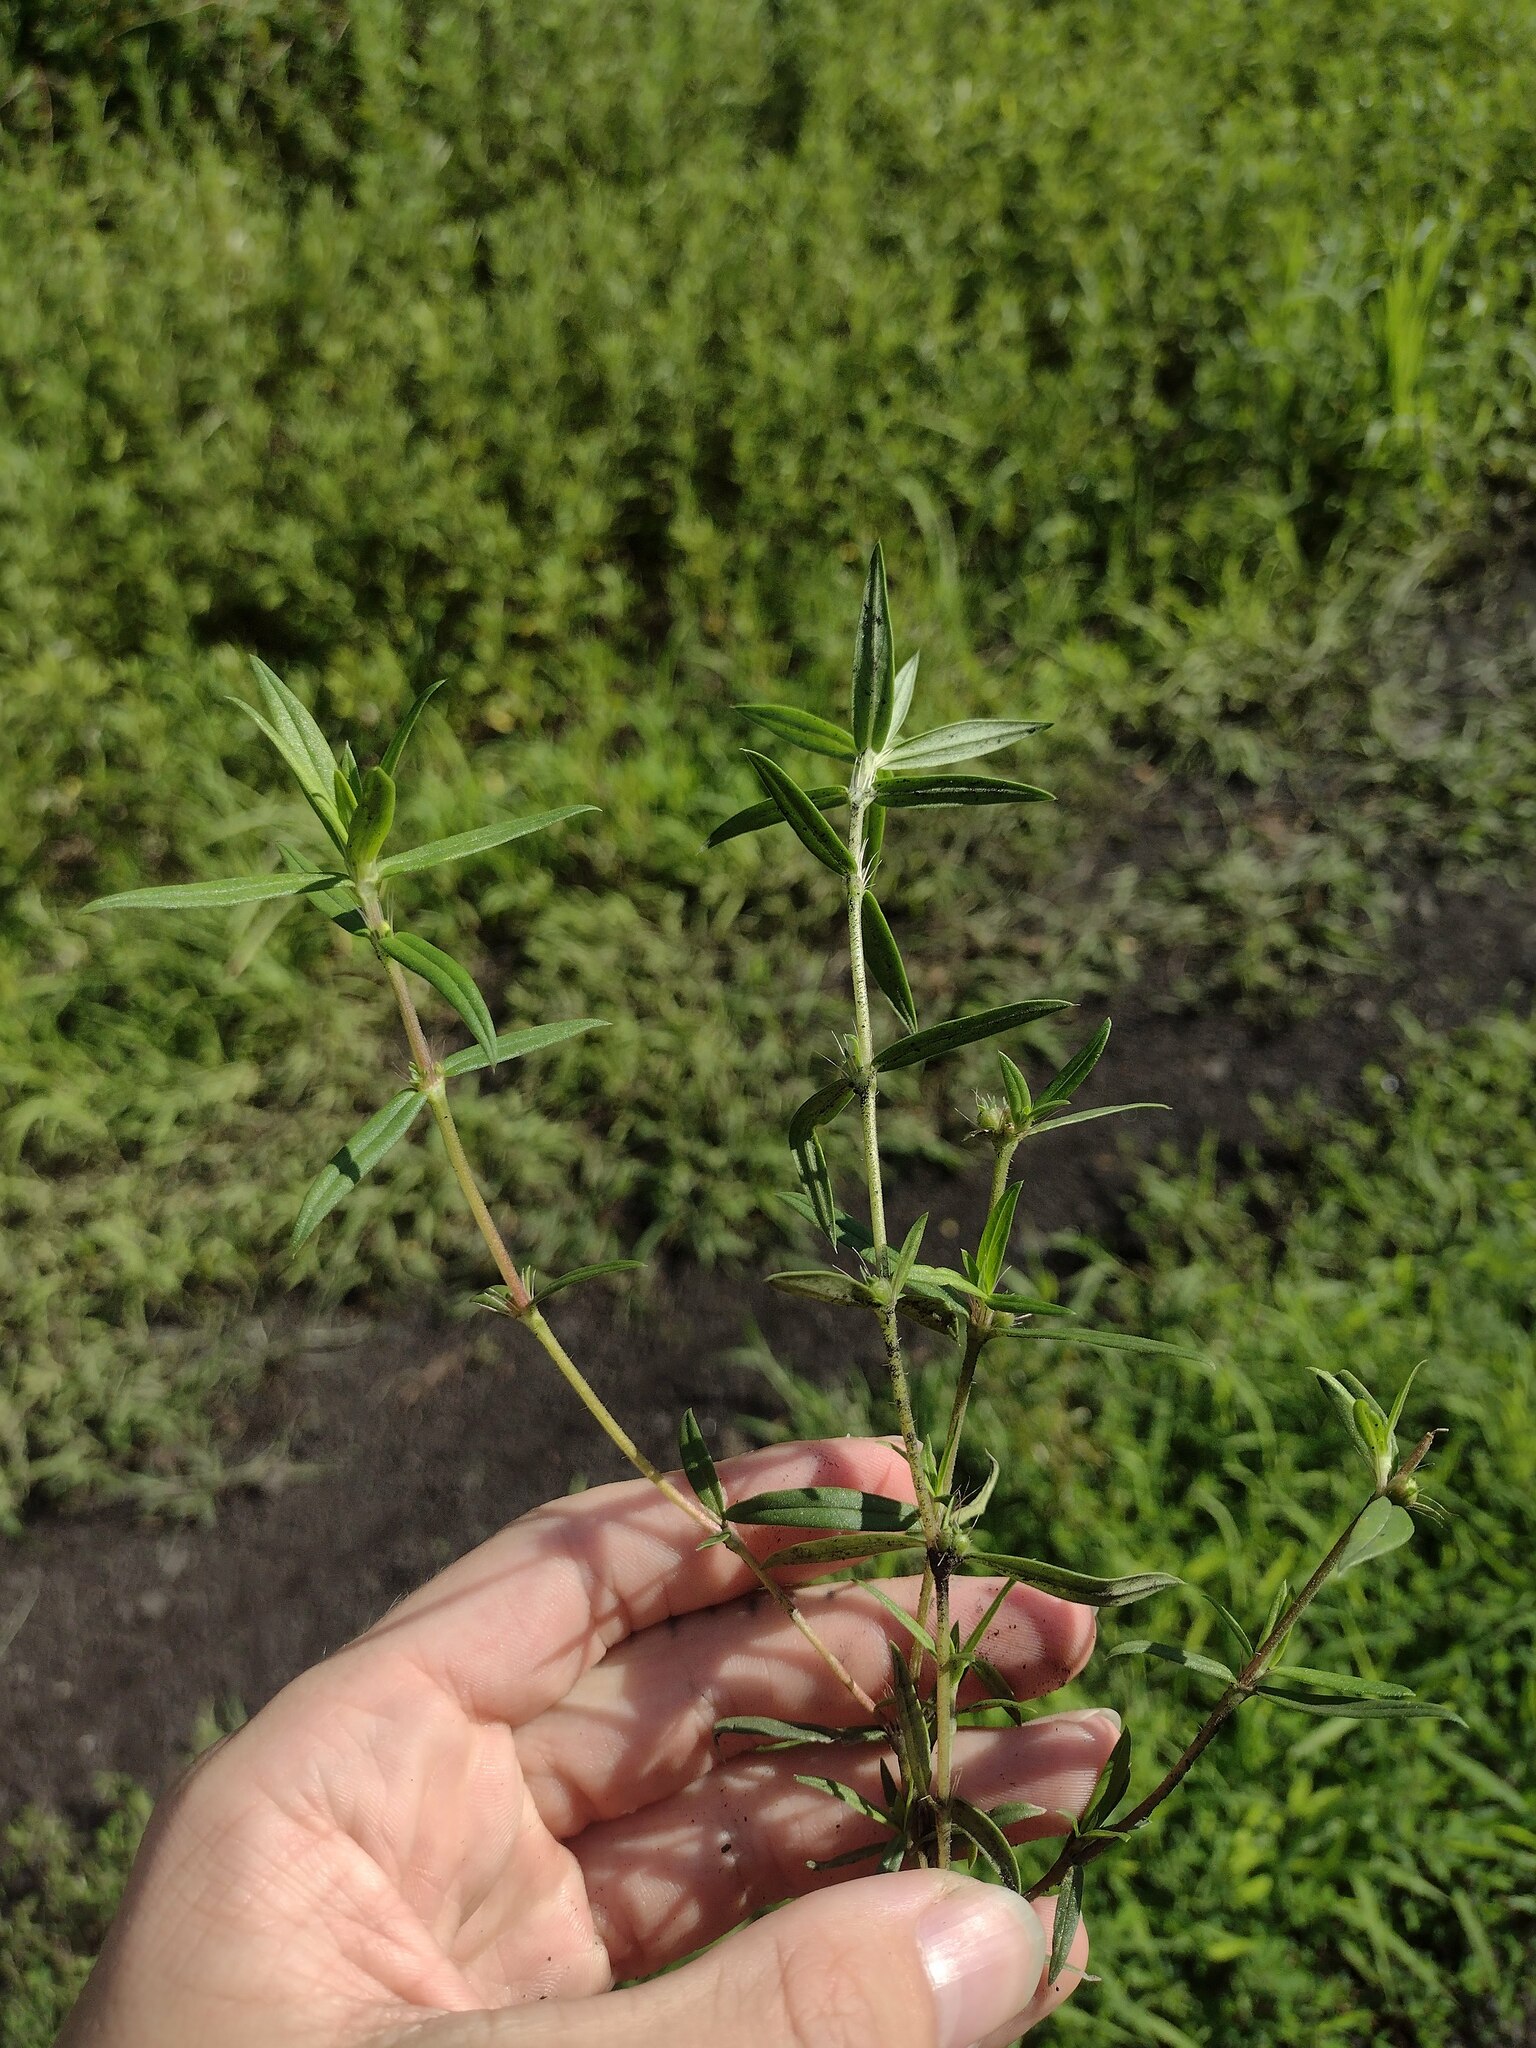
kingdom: Plantae
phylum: Tracheophyta
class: Magnoliopsida
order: Gentianales
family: Rubiaceae
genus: Hexasepalum
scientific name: Hexasepalum teres
